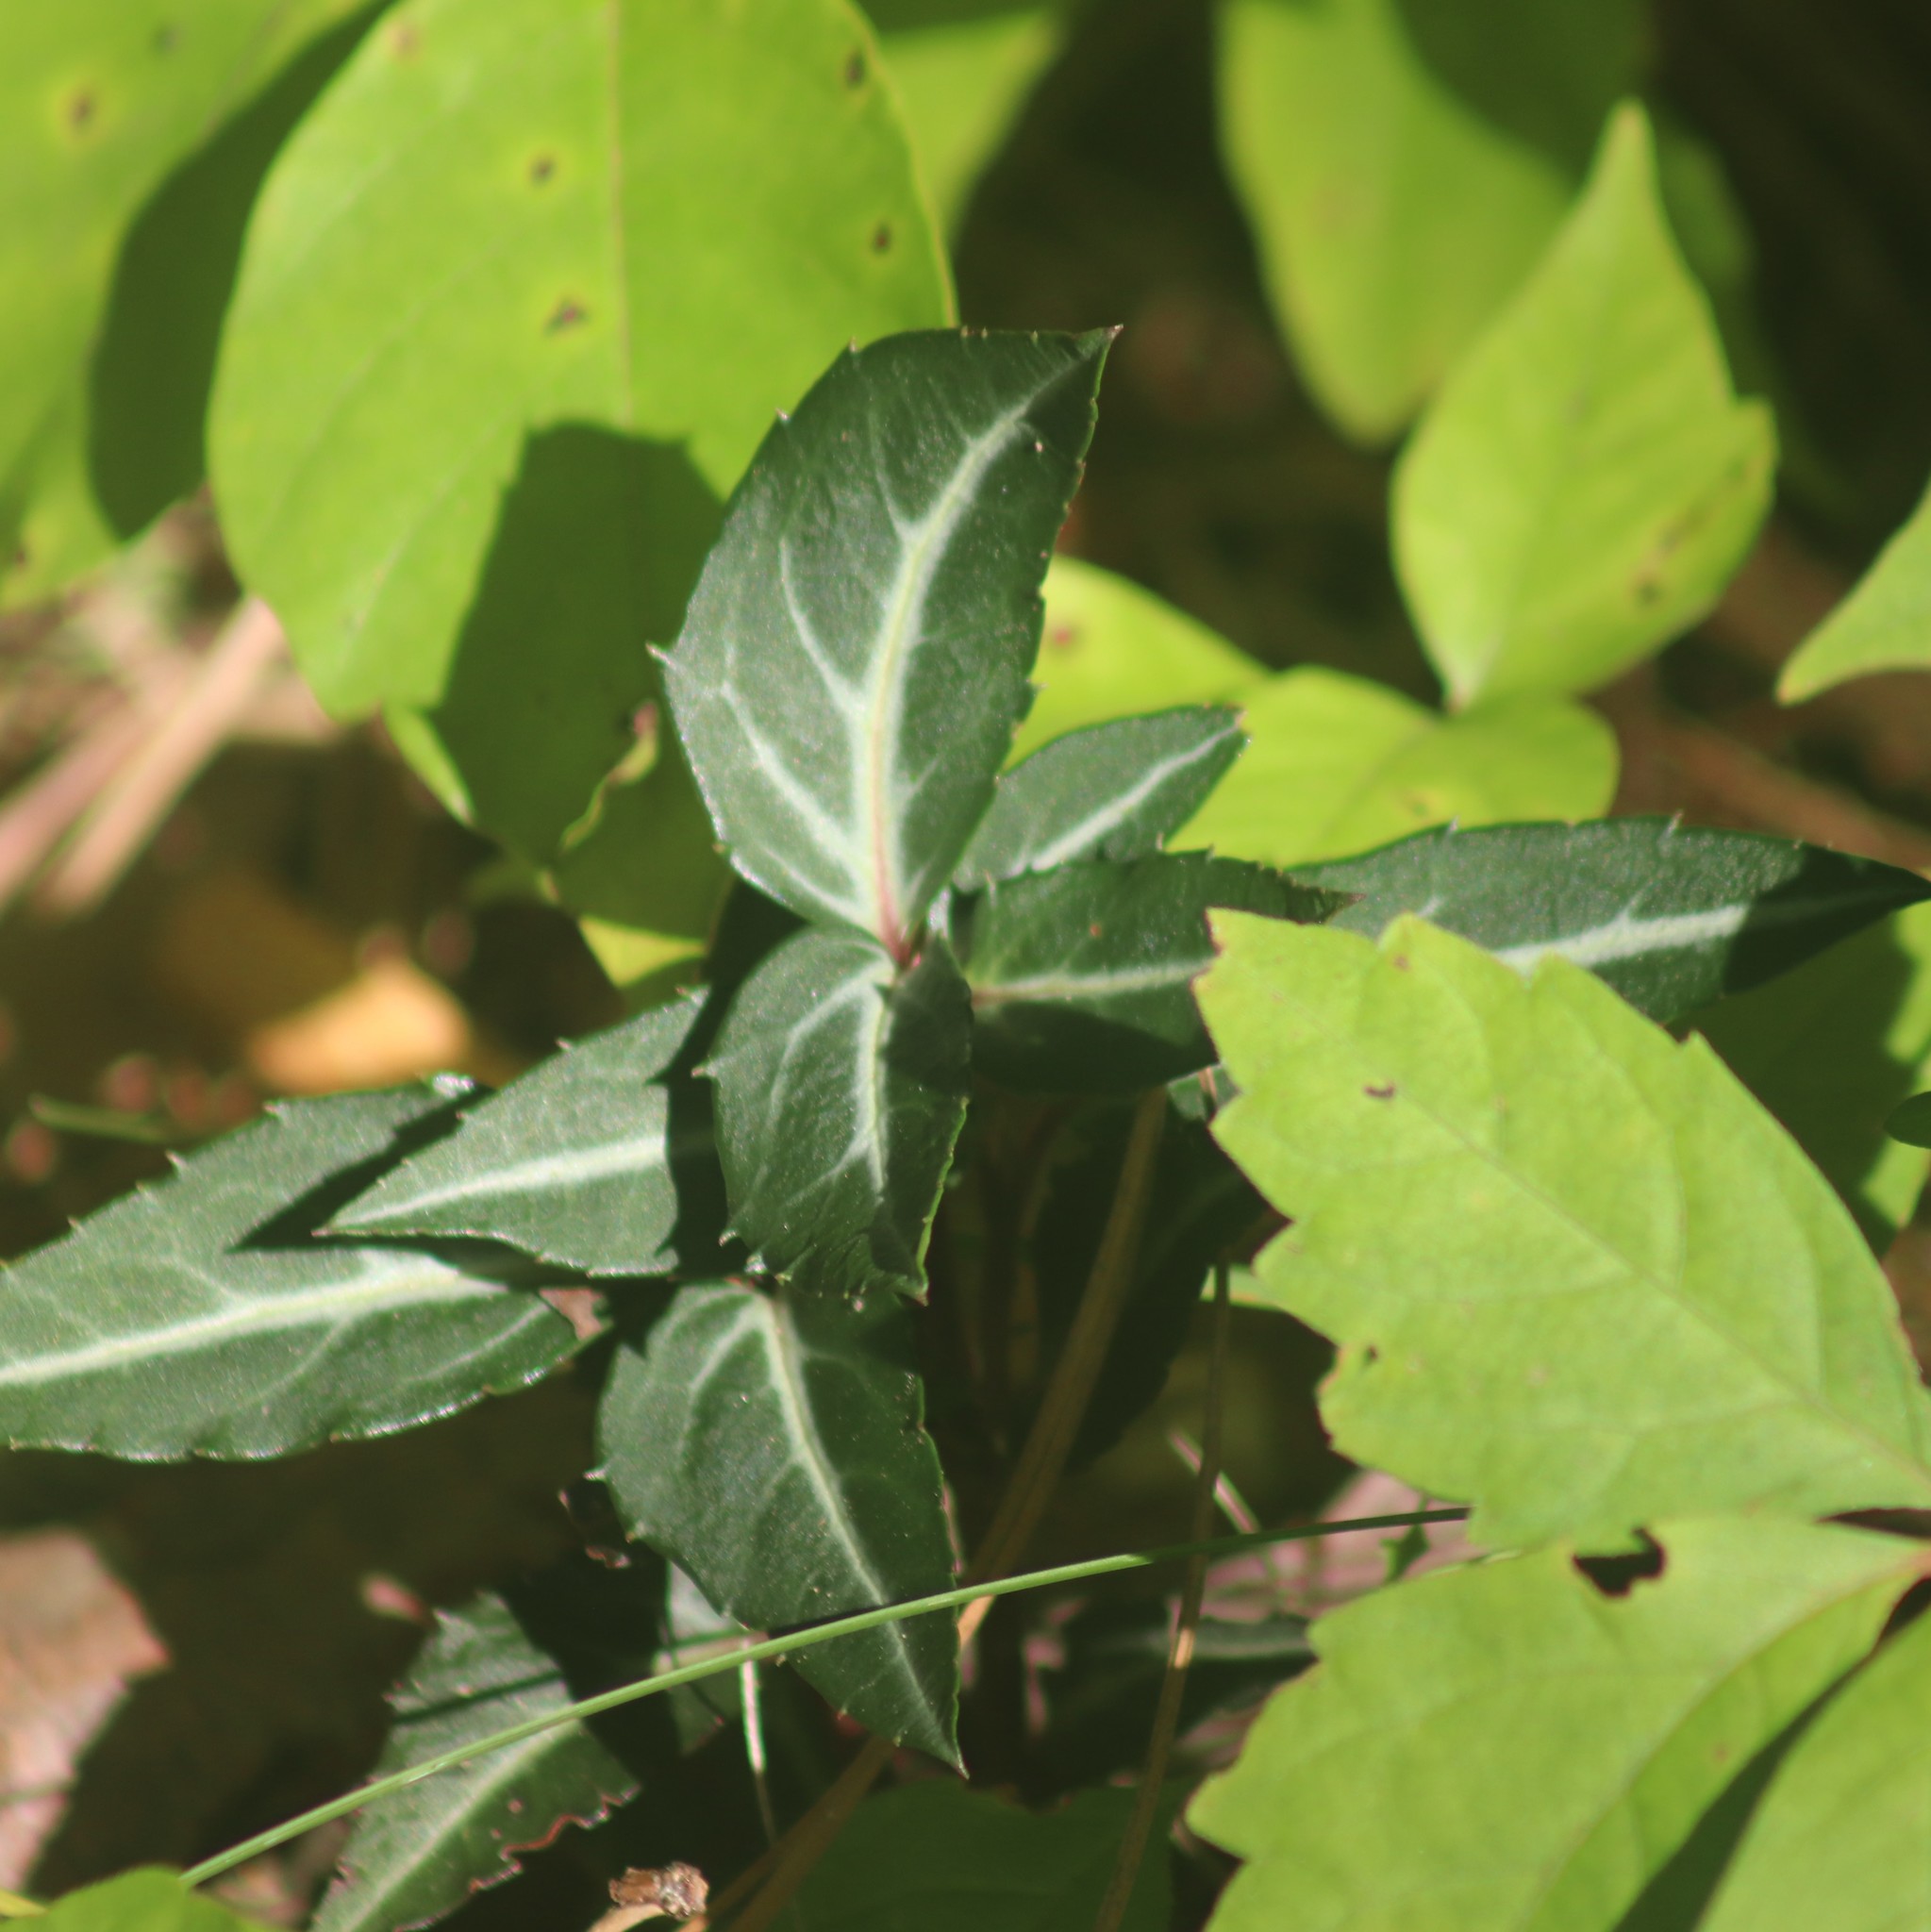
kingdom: Plantae
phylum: Tracheophyta
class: Magnoliopsida
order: Ericales
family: Ericaceae
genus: Chimaphila
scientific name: Chimaphila maculata
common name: Spotted pipsissewa
